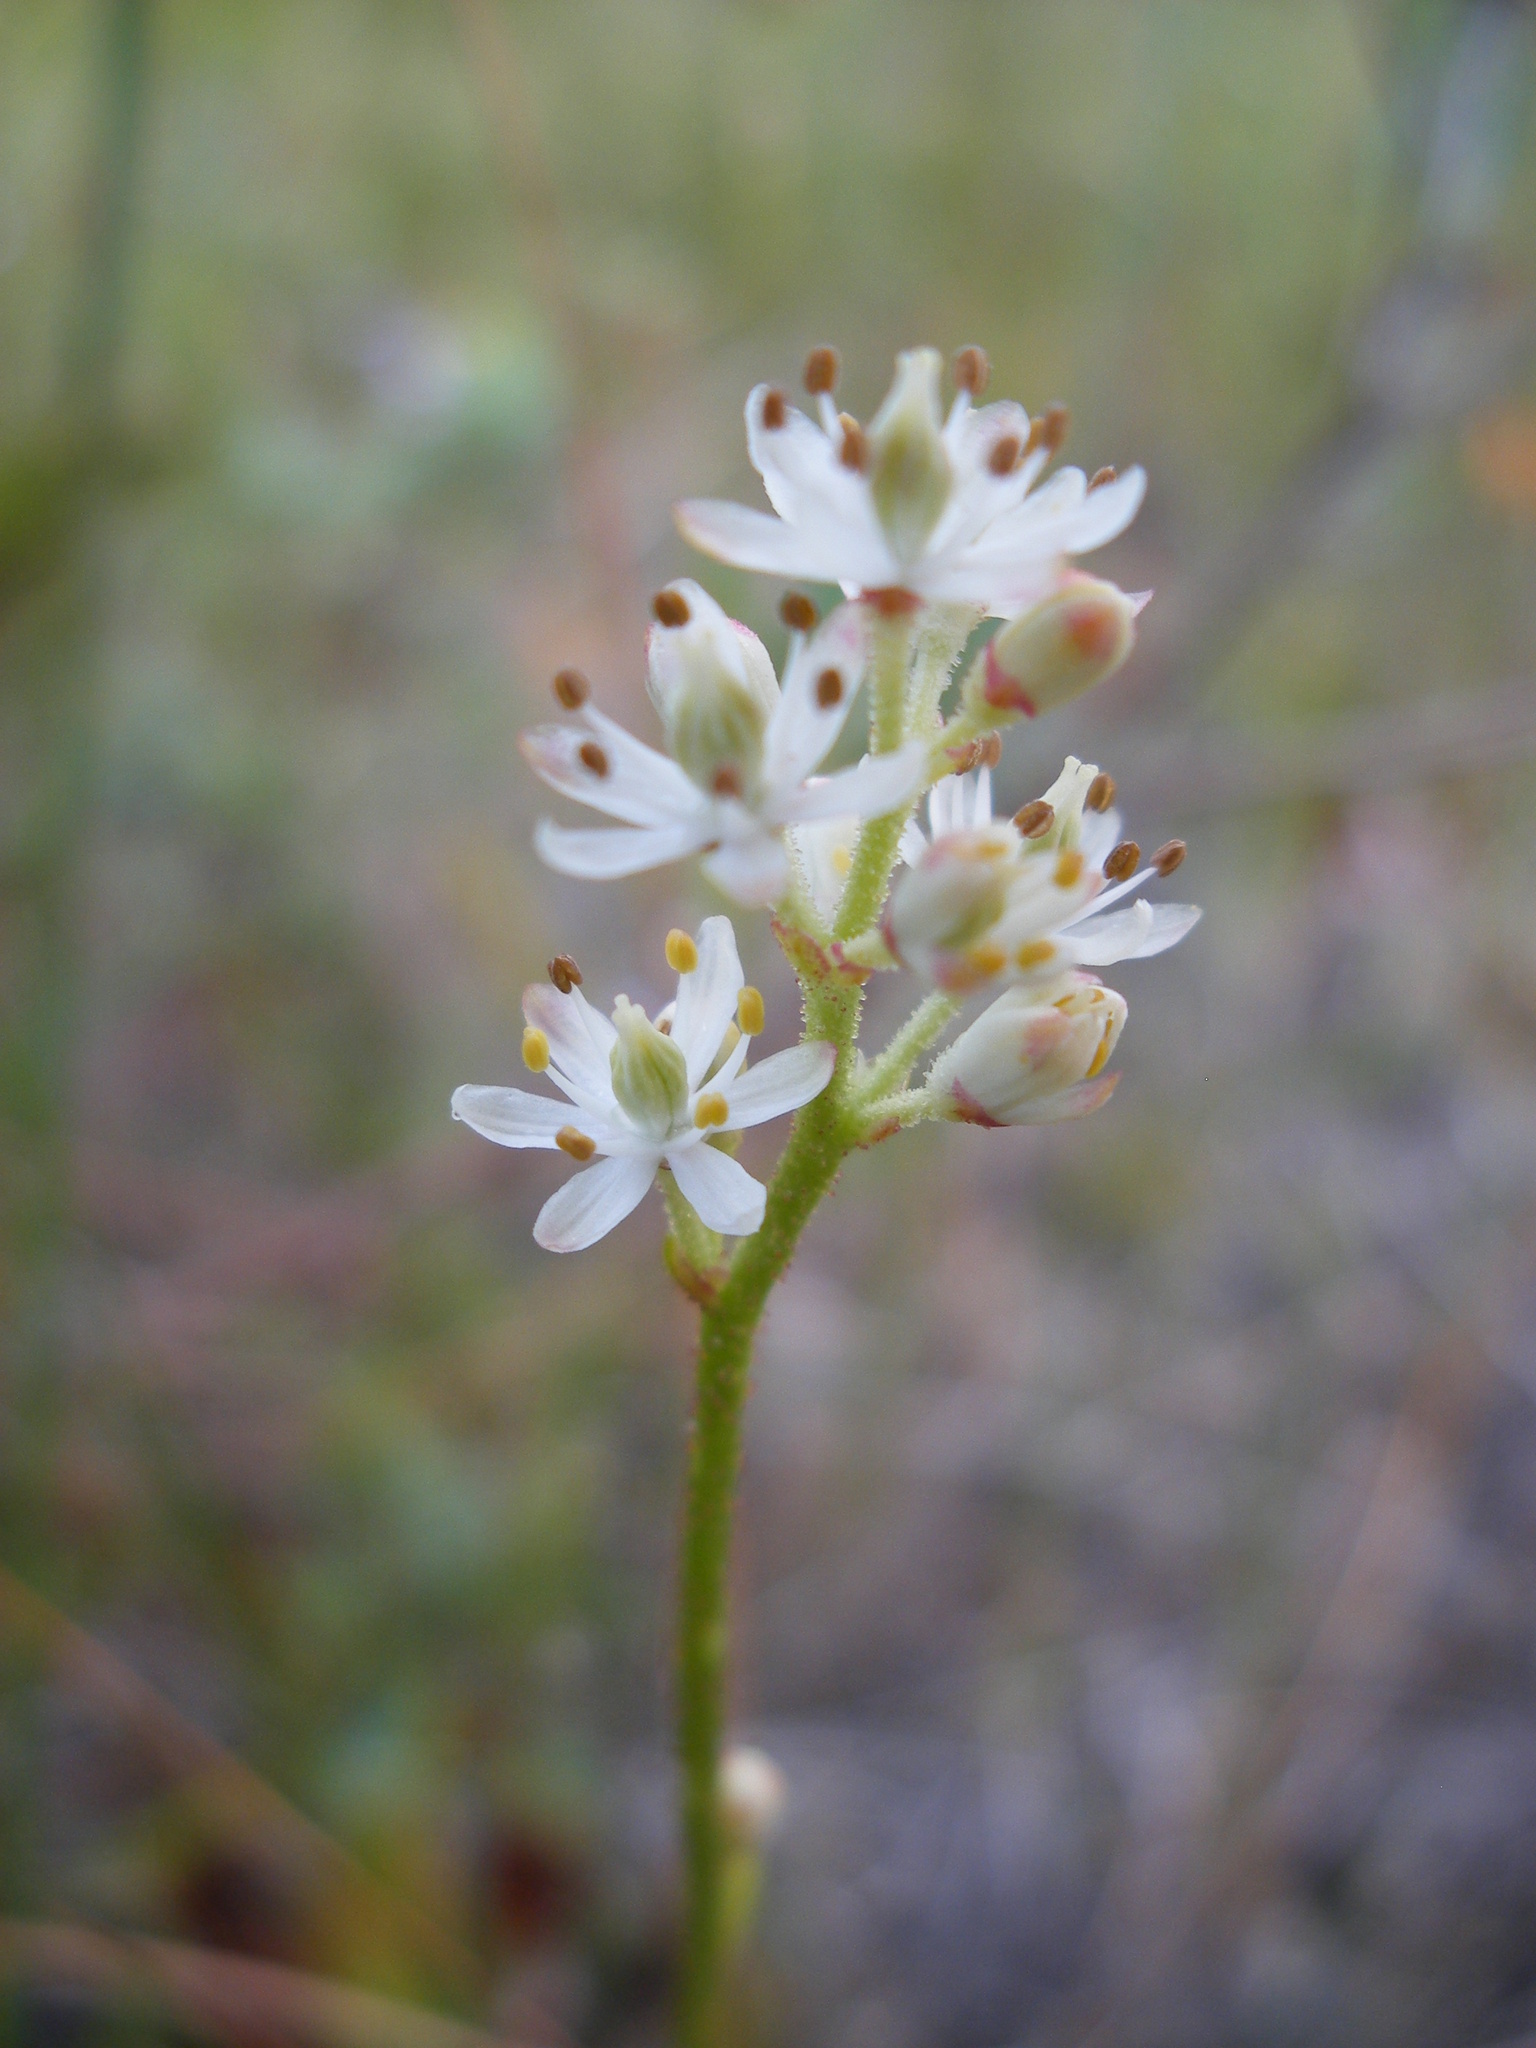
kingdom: Plantae
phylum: Tracheophyta
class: Liliopsida
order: Alismatales
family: Tofieldiaceae
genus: Triantha
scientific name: Triantha glutinosa
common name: Glutinous tofieldia
